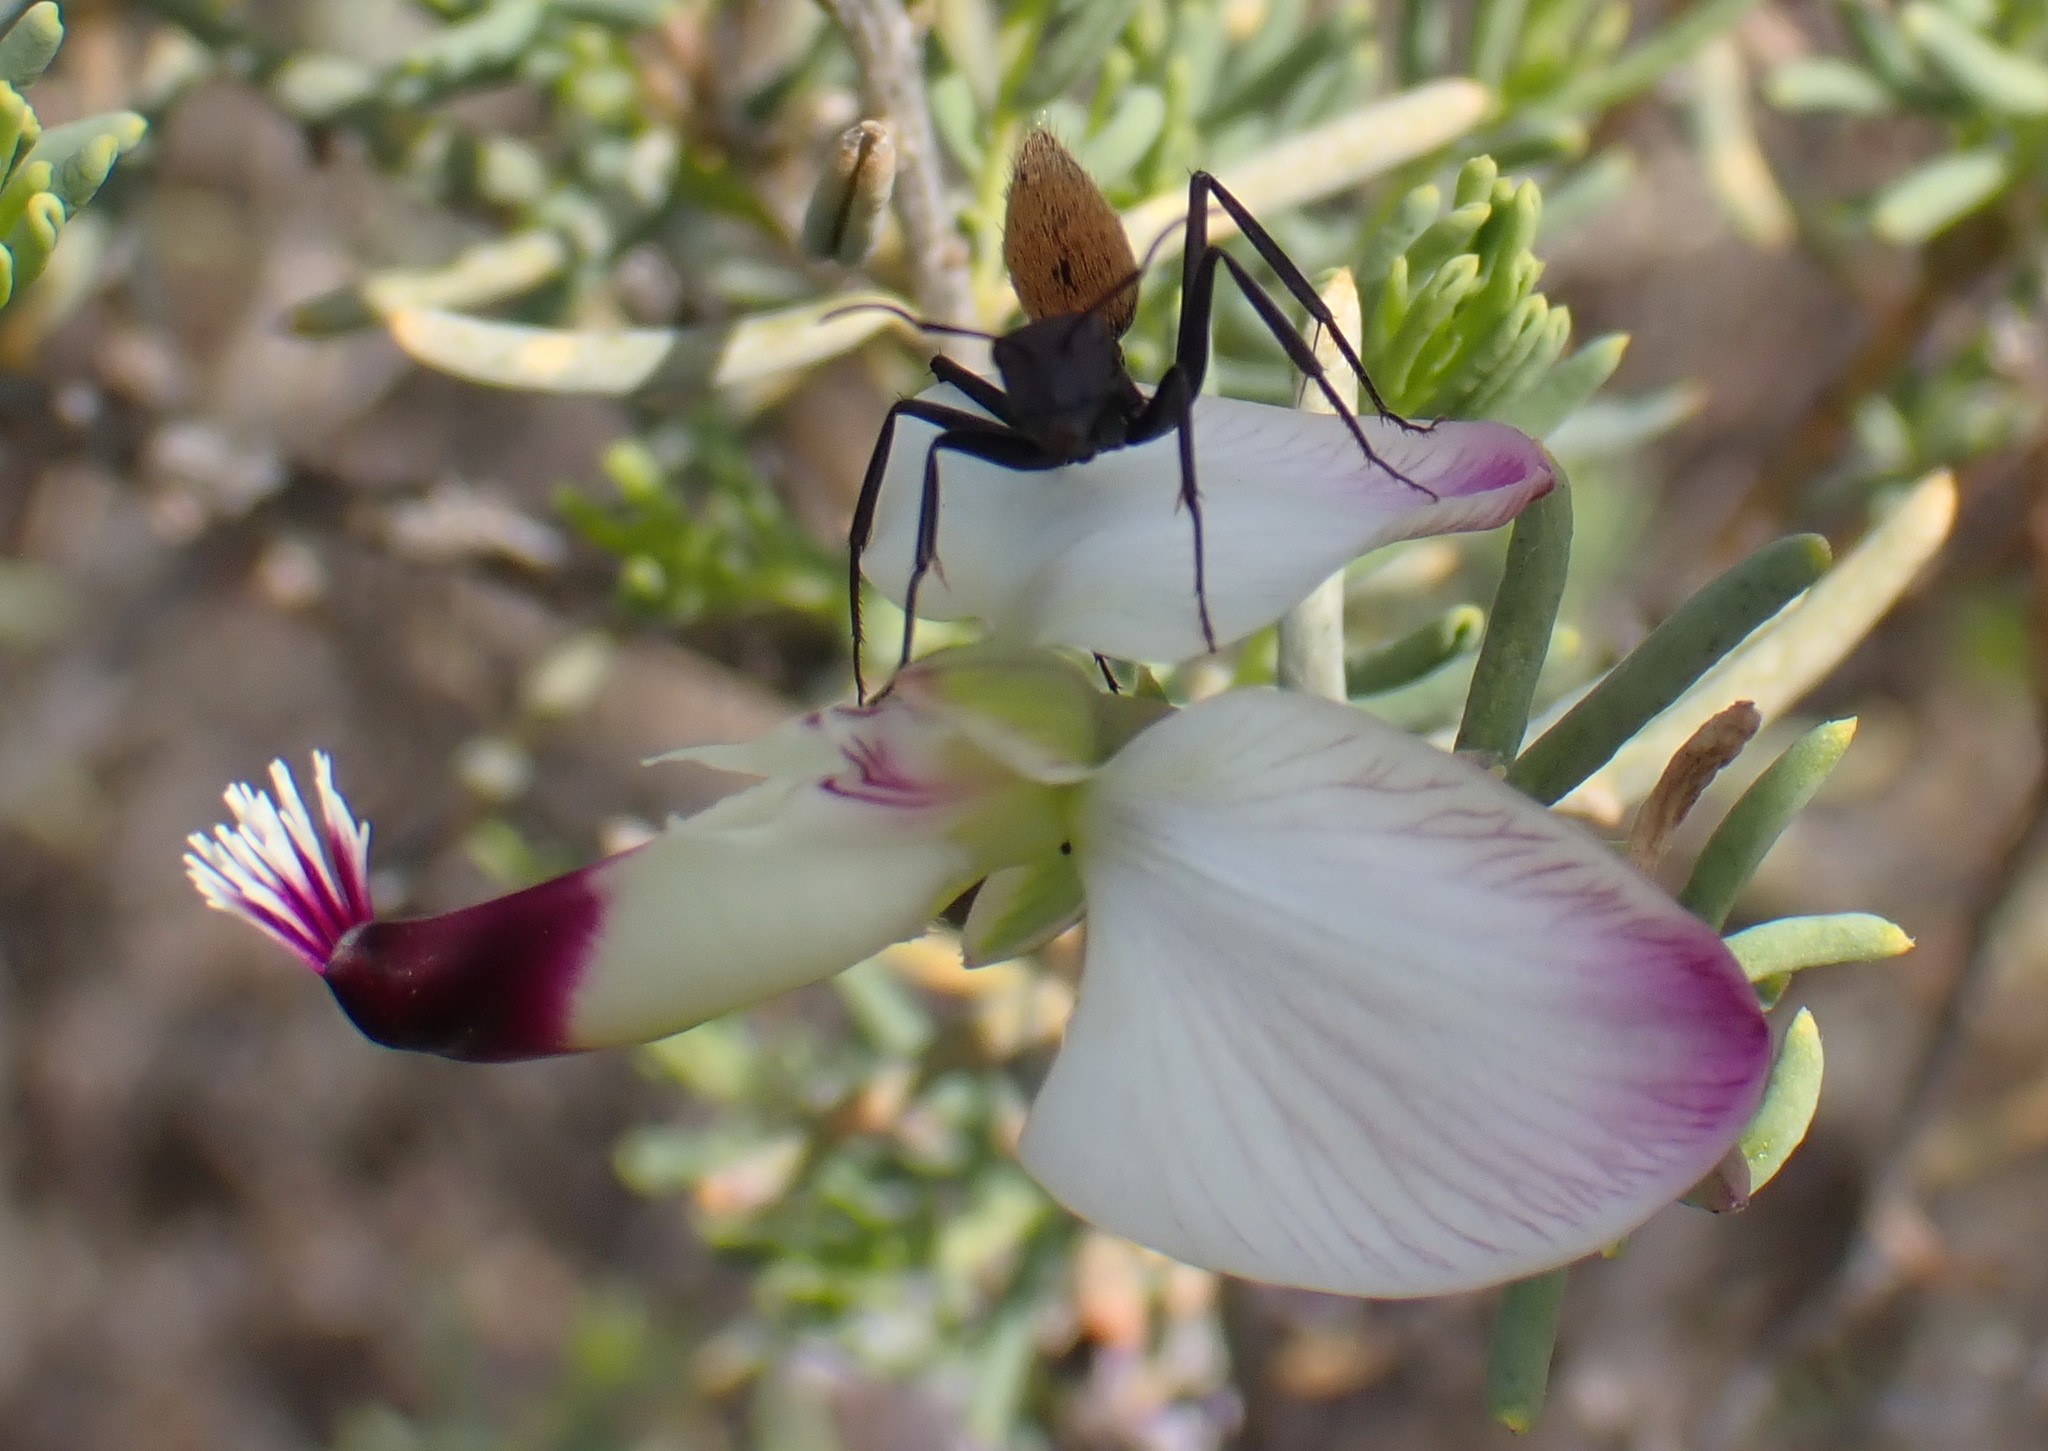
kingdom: Plantae
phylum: Tracheophyta
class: Magnoliopsida
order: Fabales
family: Polygalaceae
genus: Polygala
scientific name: Polygala myrtifolia
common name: Myrtle-leaf milkwort
